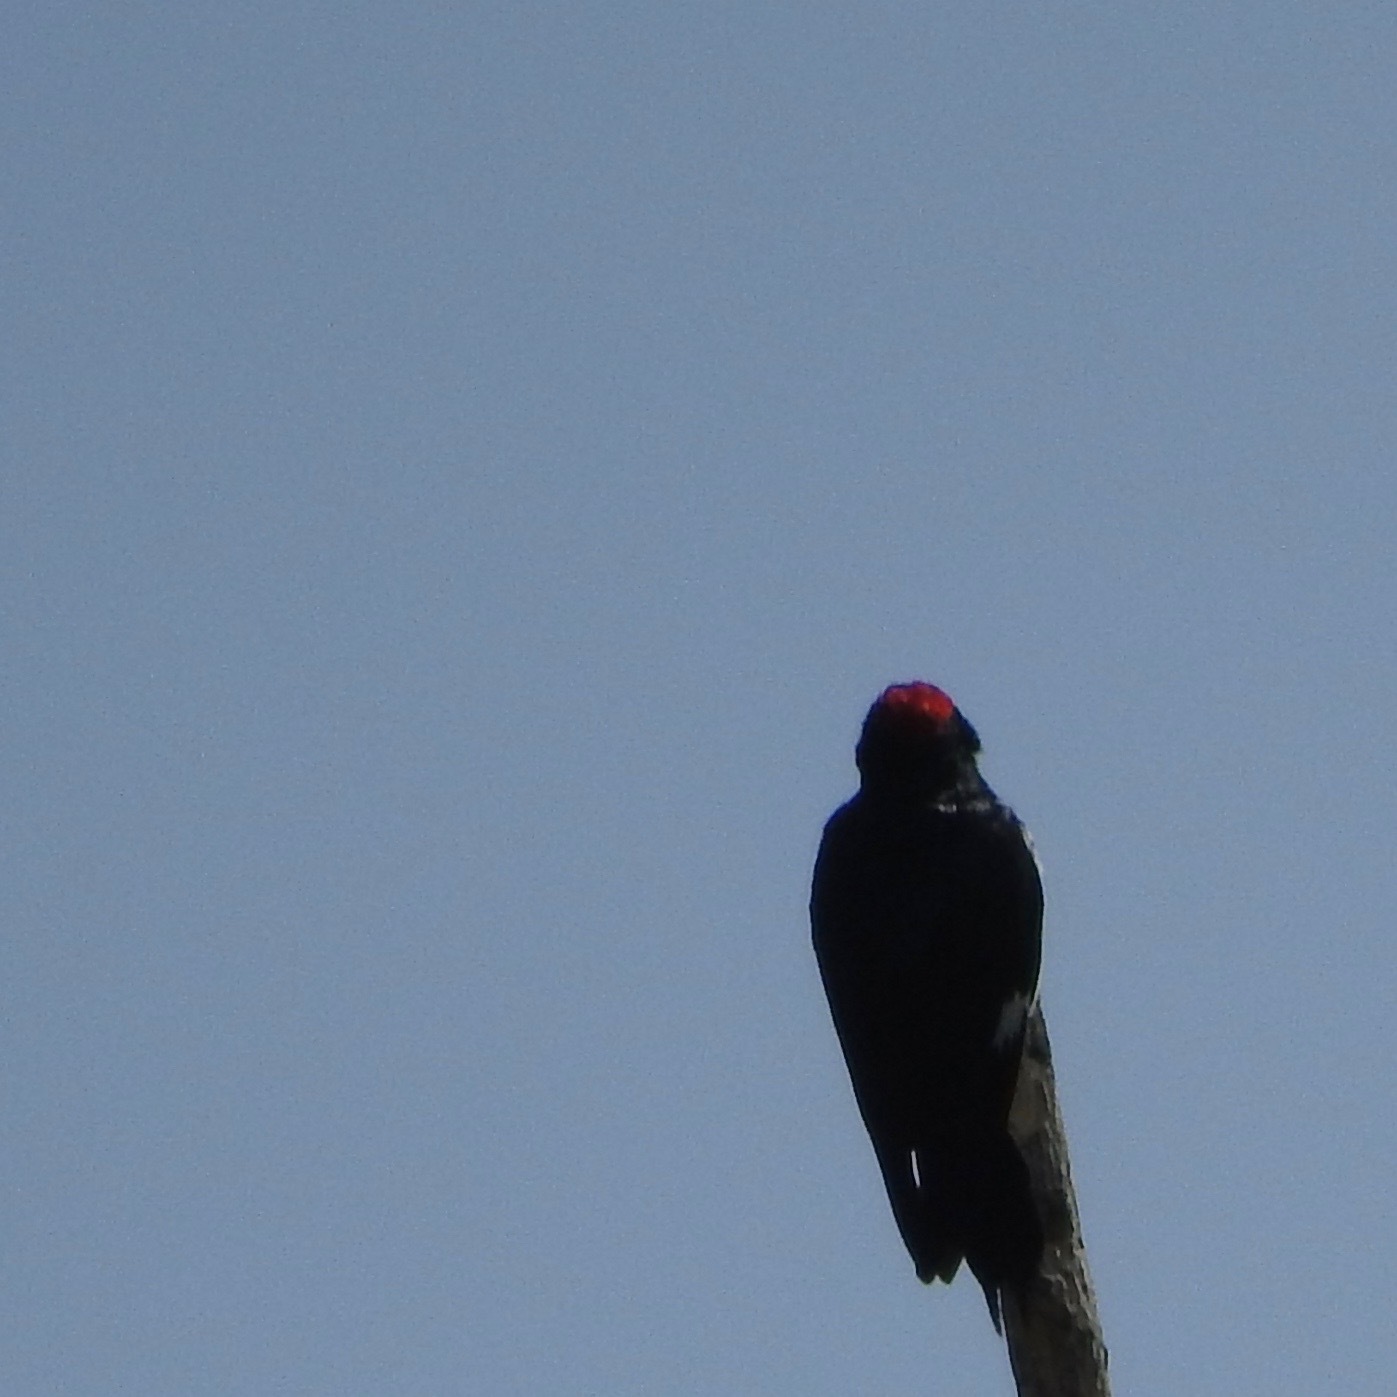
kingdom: Animalia
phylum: Chordata
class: Aves
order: Piciformes
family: Picidae
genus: Melanerpes
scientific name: Melanerpes formicivorus
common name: Acorn woodpecker
